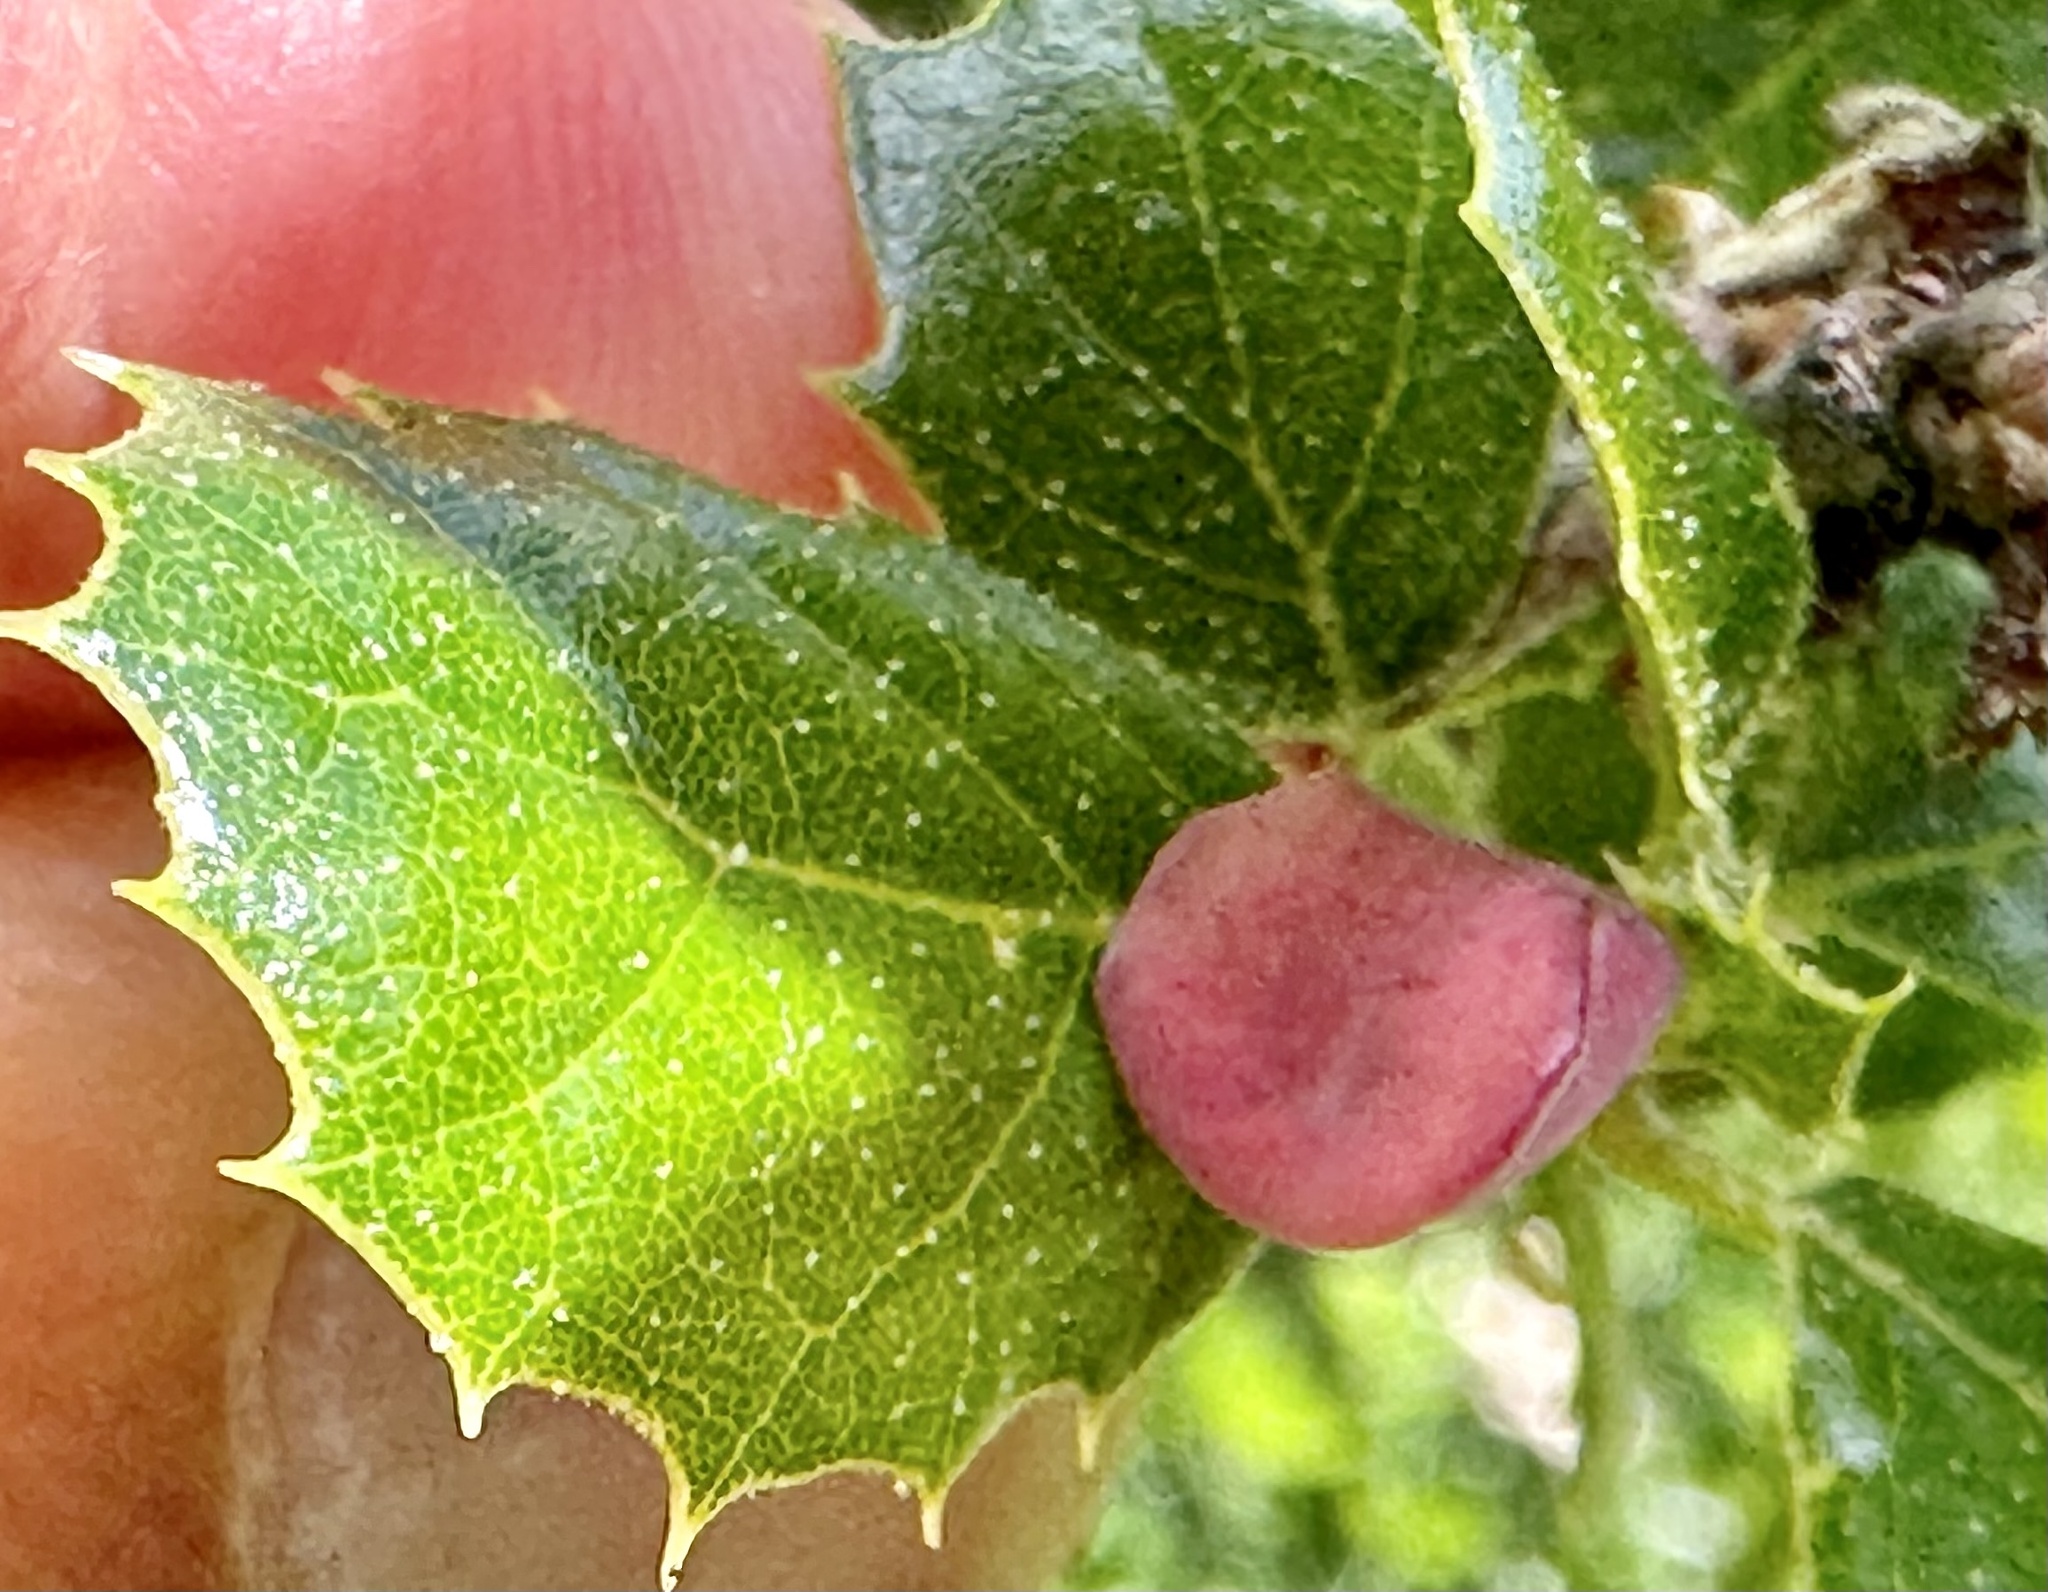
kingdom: Animalia
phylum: Arthropoda
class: Insecta
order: Hymenoptera
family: Cynipidae
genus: Amphibolips
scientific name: Amphibolips quercuspomiformis
